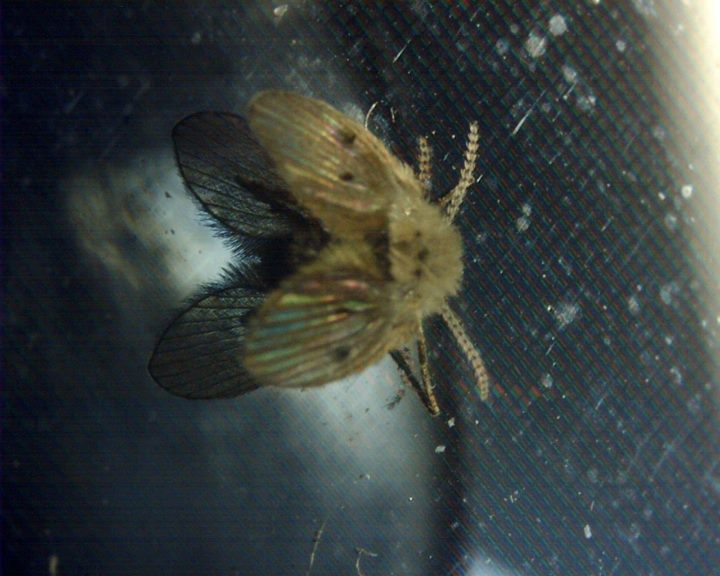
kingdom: Animalia
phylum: Arthropoda
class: Insecta
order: Diptera
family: Psychodidae
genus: Clogmia
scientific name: Clogmia albipunctatus
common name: White-spotted moth fly
